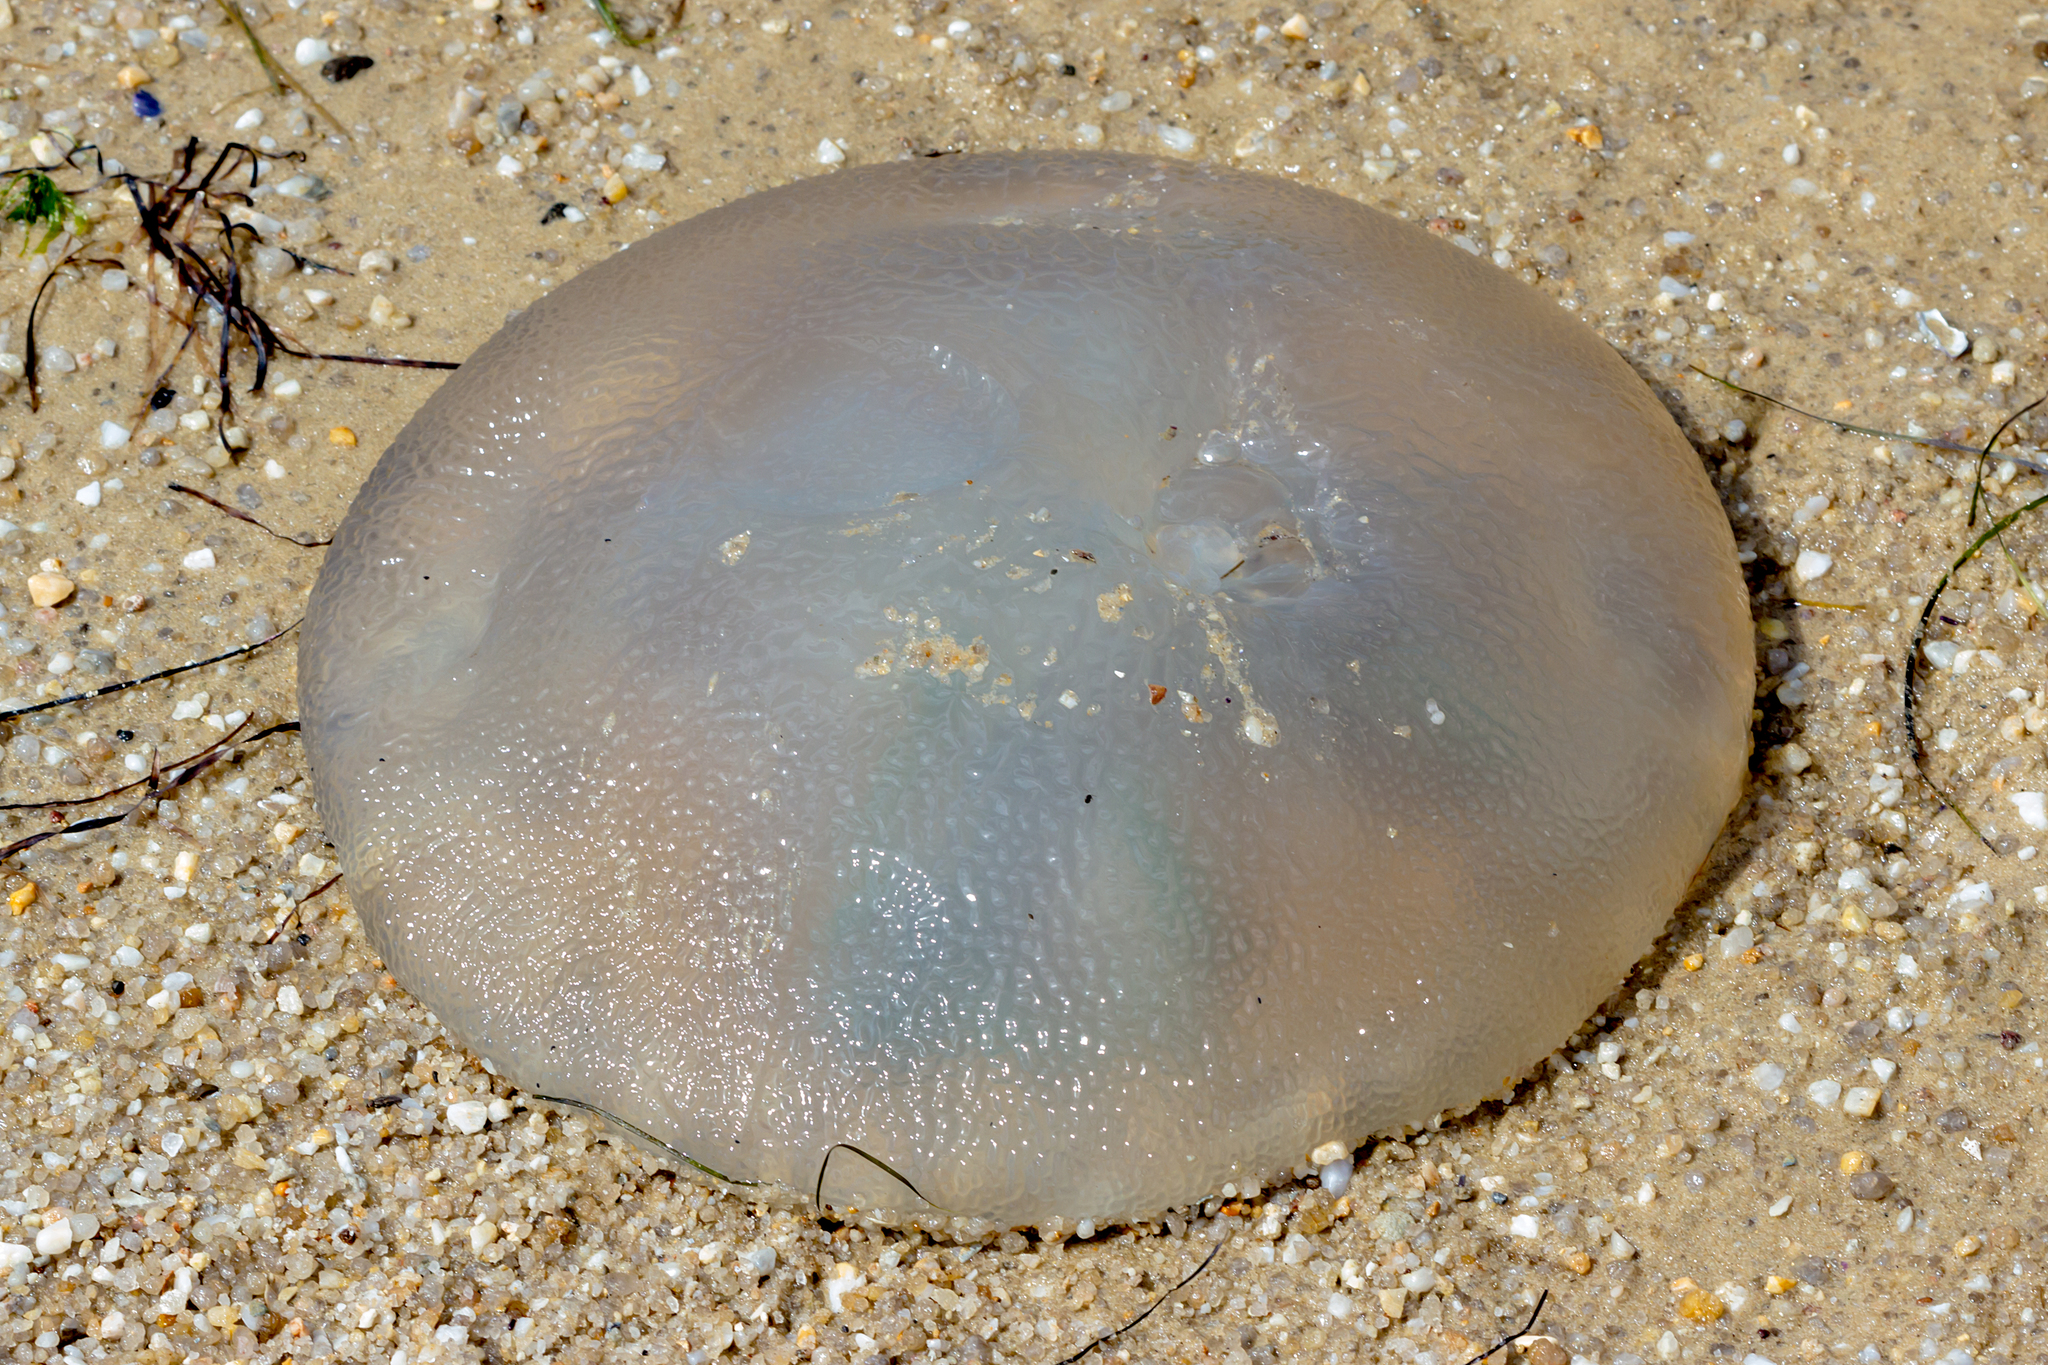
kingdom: Animalia
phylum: Cnidaria
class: Scyphozoa
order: Rhizostomeae
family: Catostylidae
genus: Catostylus
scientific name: Catostylus mosaicus
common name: Blue blubber
